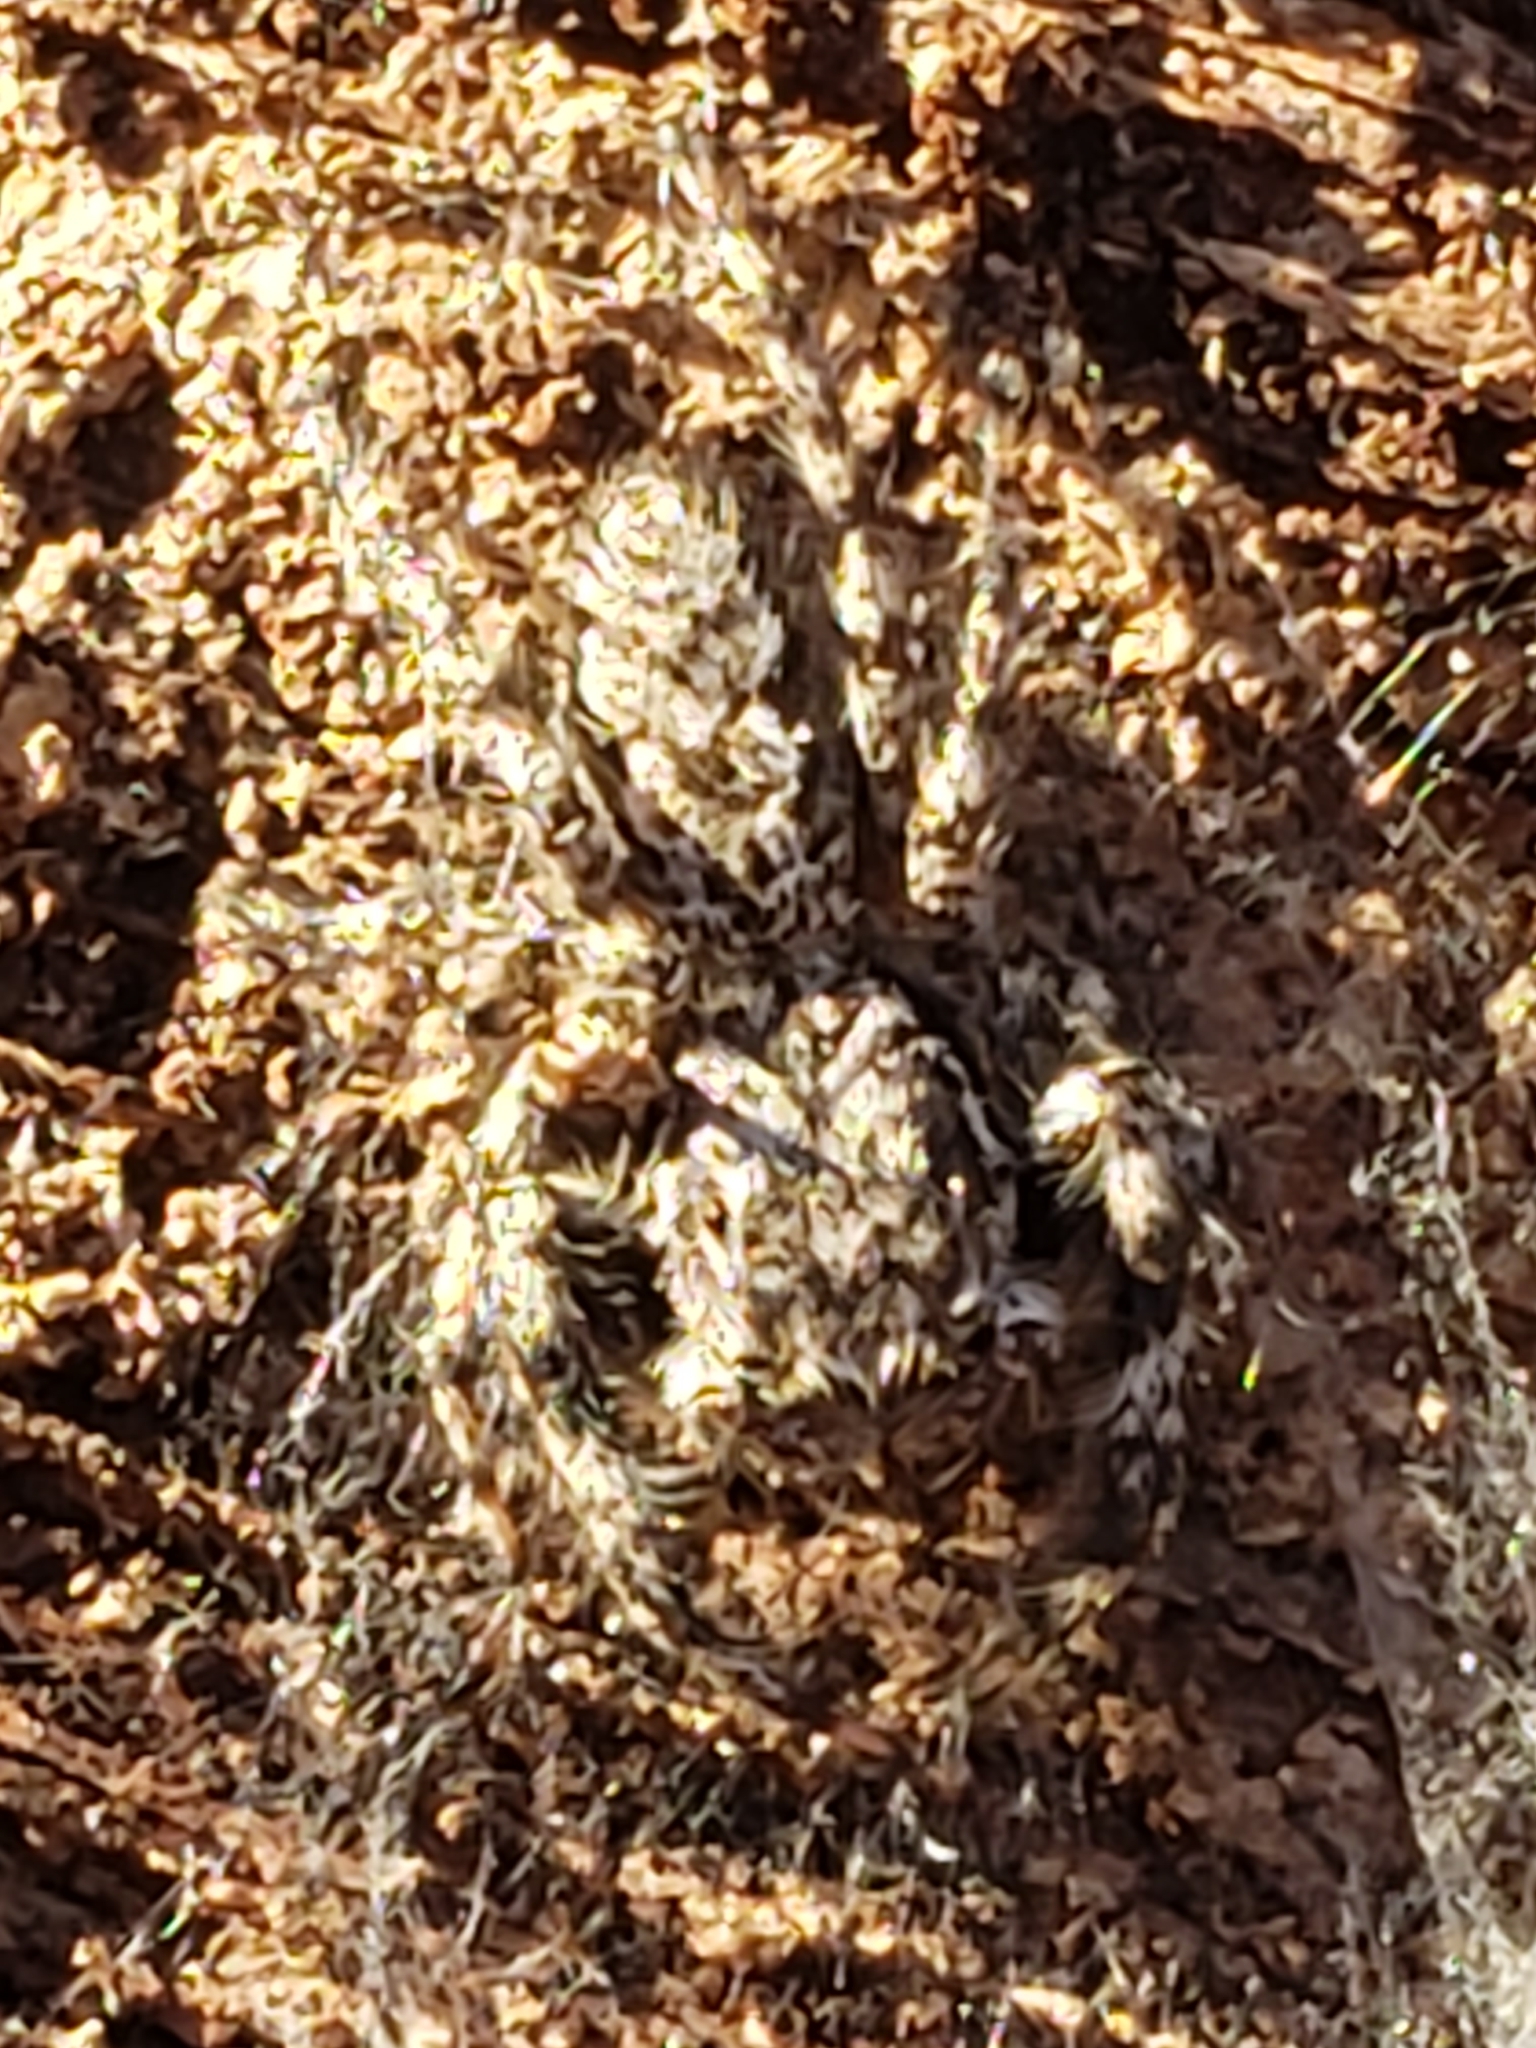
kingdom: Animalia
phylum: Arthropoda
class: Arachnida
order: Araneae
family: Salticidae
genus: Platycryptus
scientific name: Platycryptus undatus
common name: Tan jumping spider
